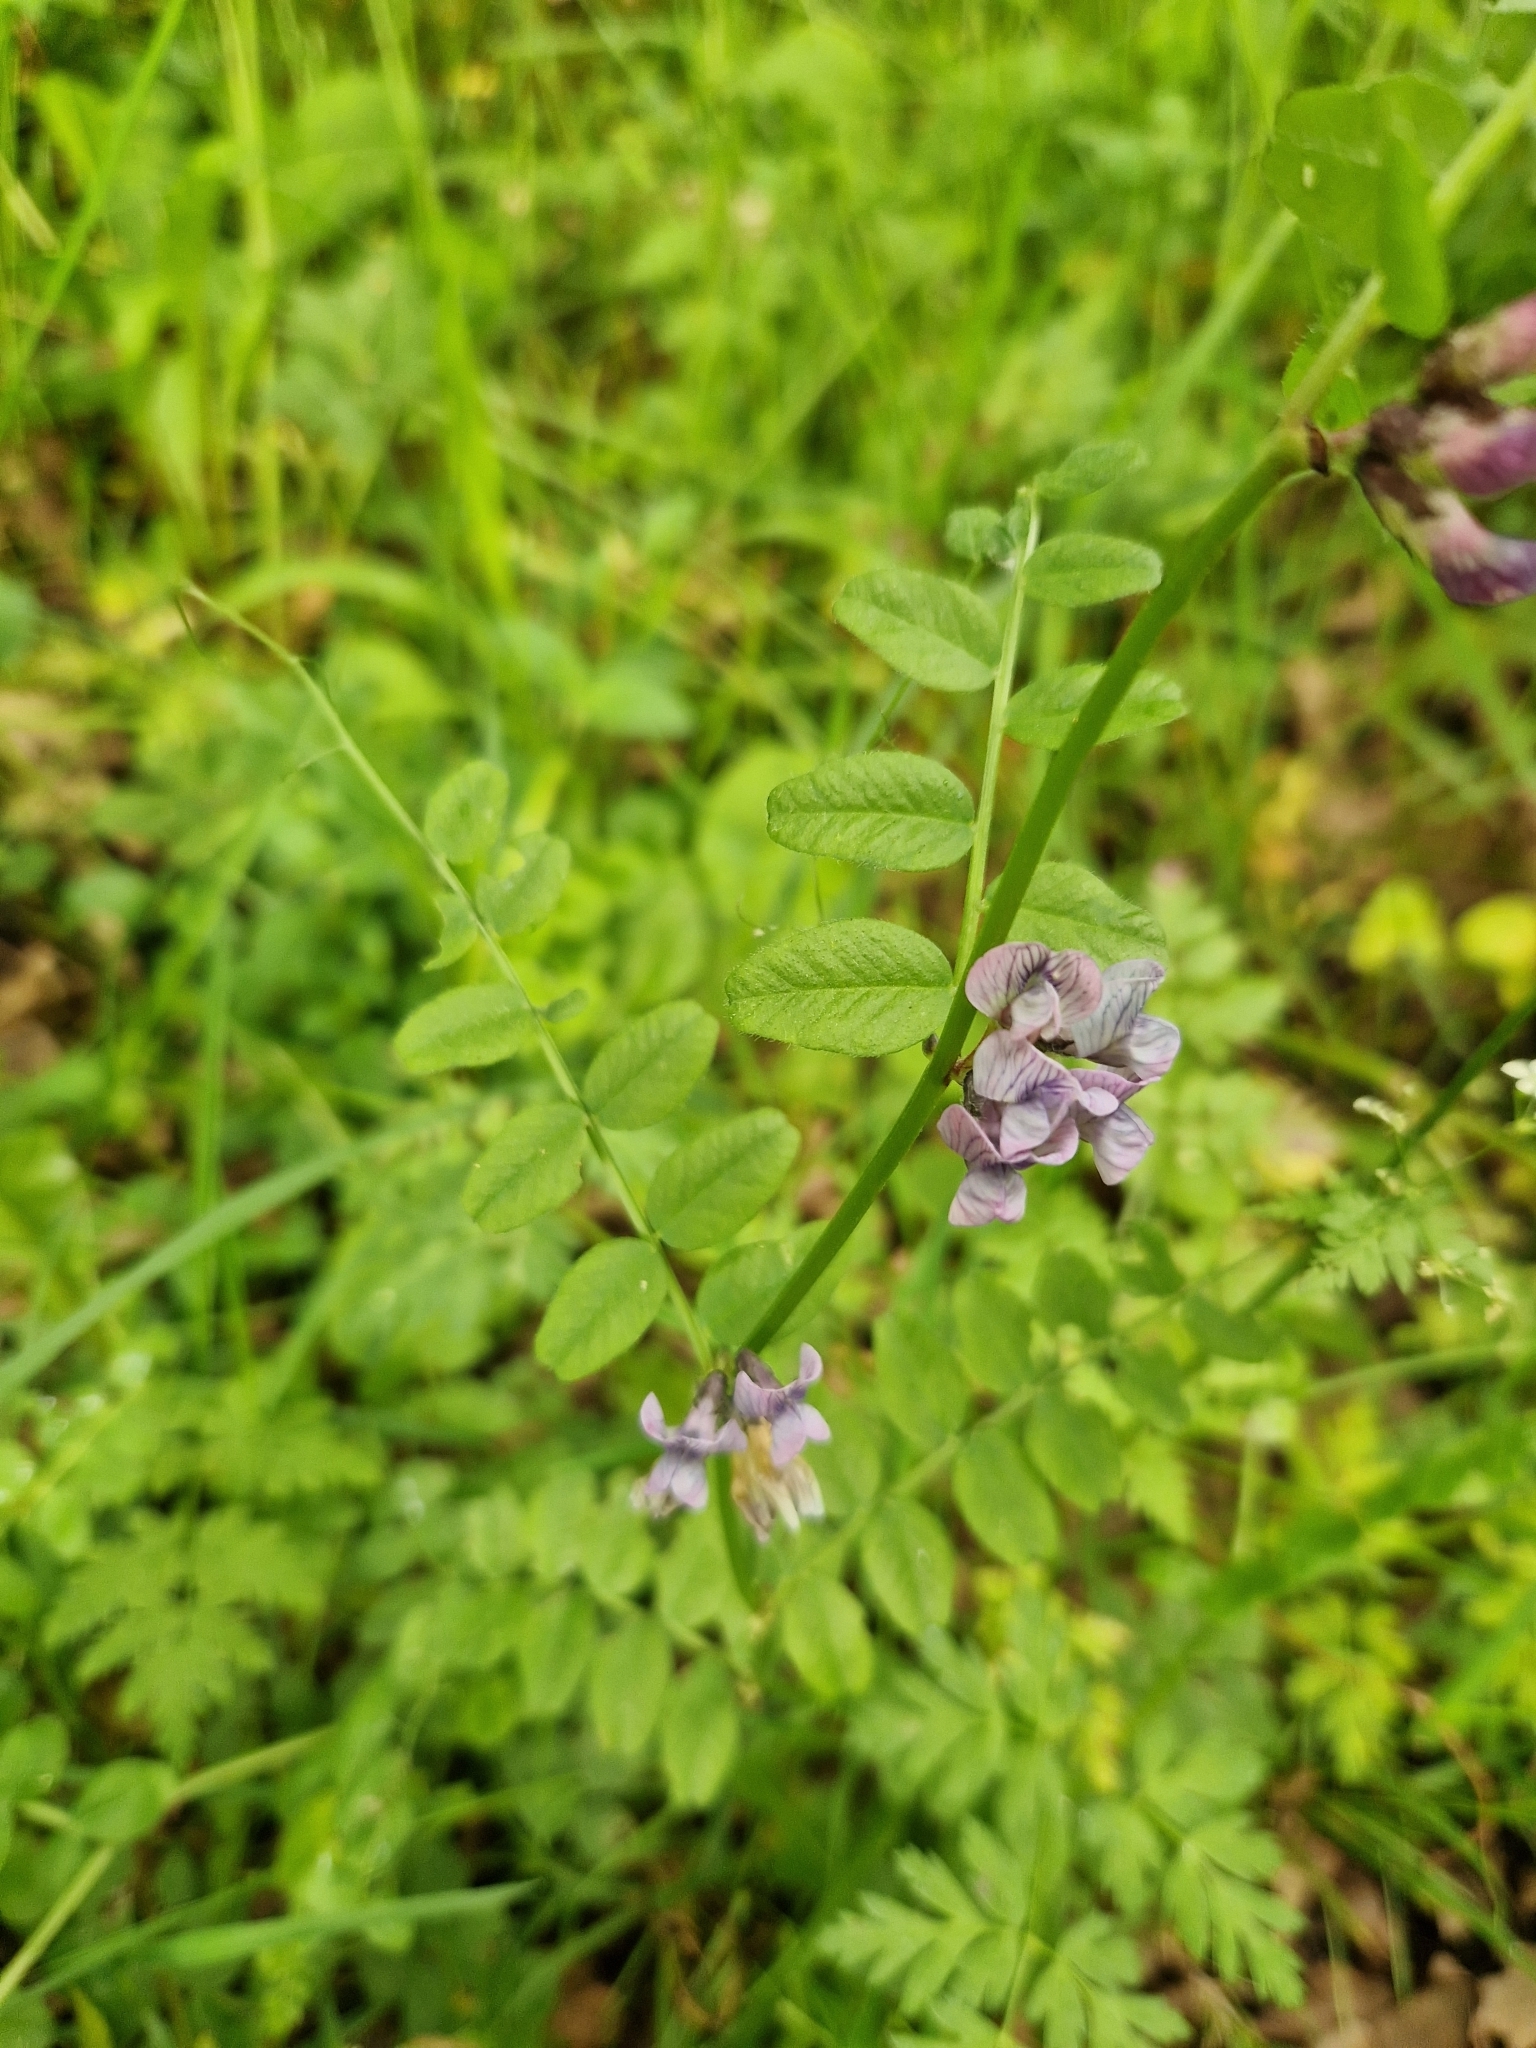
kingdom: Plantae
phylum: Tracheophyta
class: Magnoliopsida
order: Fabales
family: Fabaceae
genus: Vicia
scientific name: Vicia sepium
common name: Bush vetch
